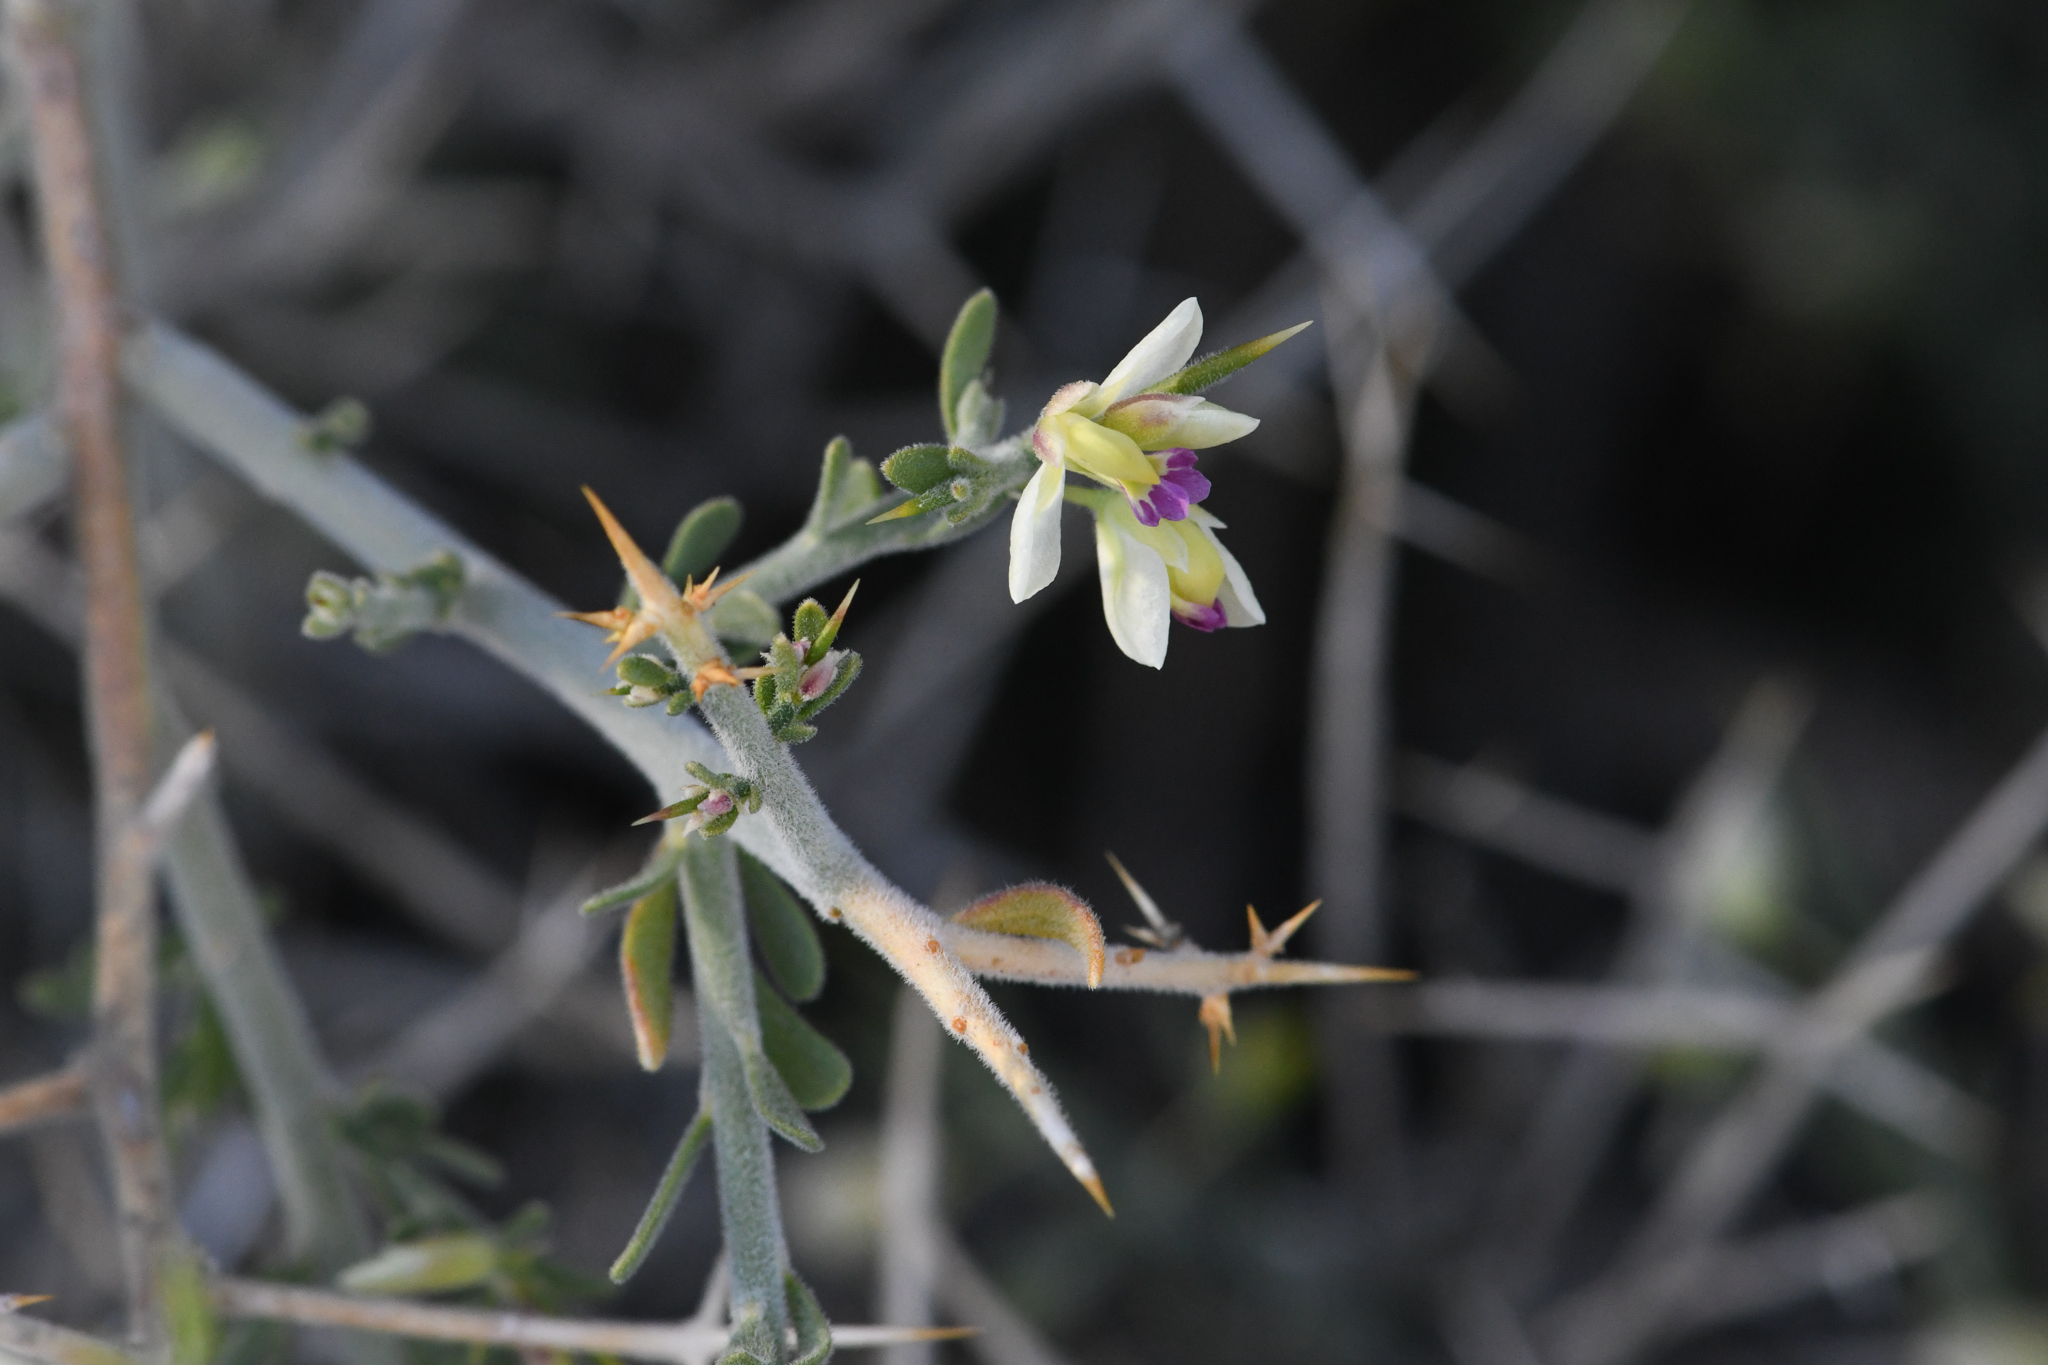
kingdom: Plantae
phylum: Tracheophyta
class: Magnoliopsida
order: Fabales
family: Polygalaceae
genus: Rhinotropis
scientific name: Rhinotropis acanthoclada
